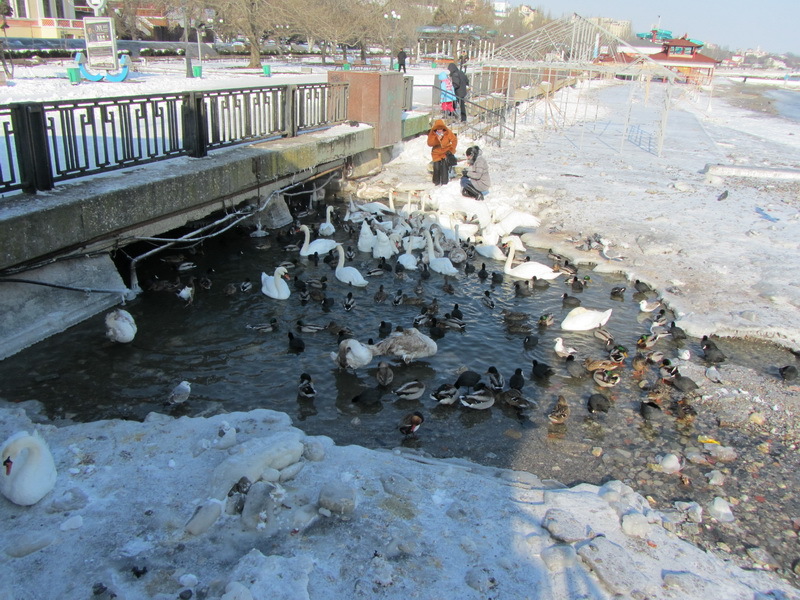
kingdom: Animalia
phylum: Chordata
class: Aves
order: Anseriformes
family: Anatidae
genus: Cygnus
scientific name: Cygnus olor
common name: Mute swan
